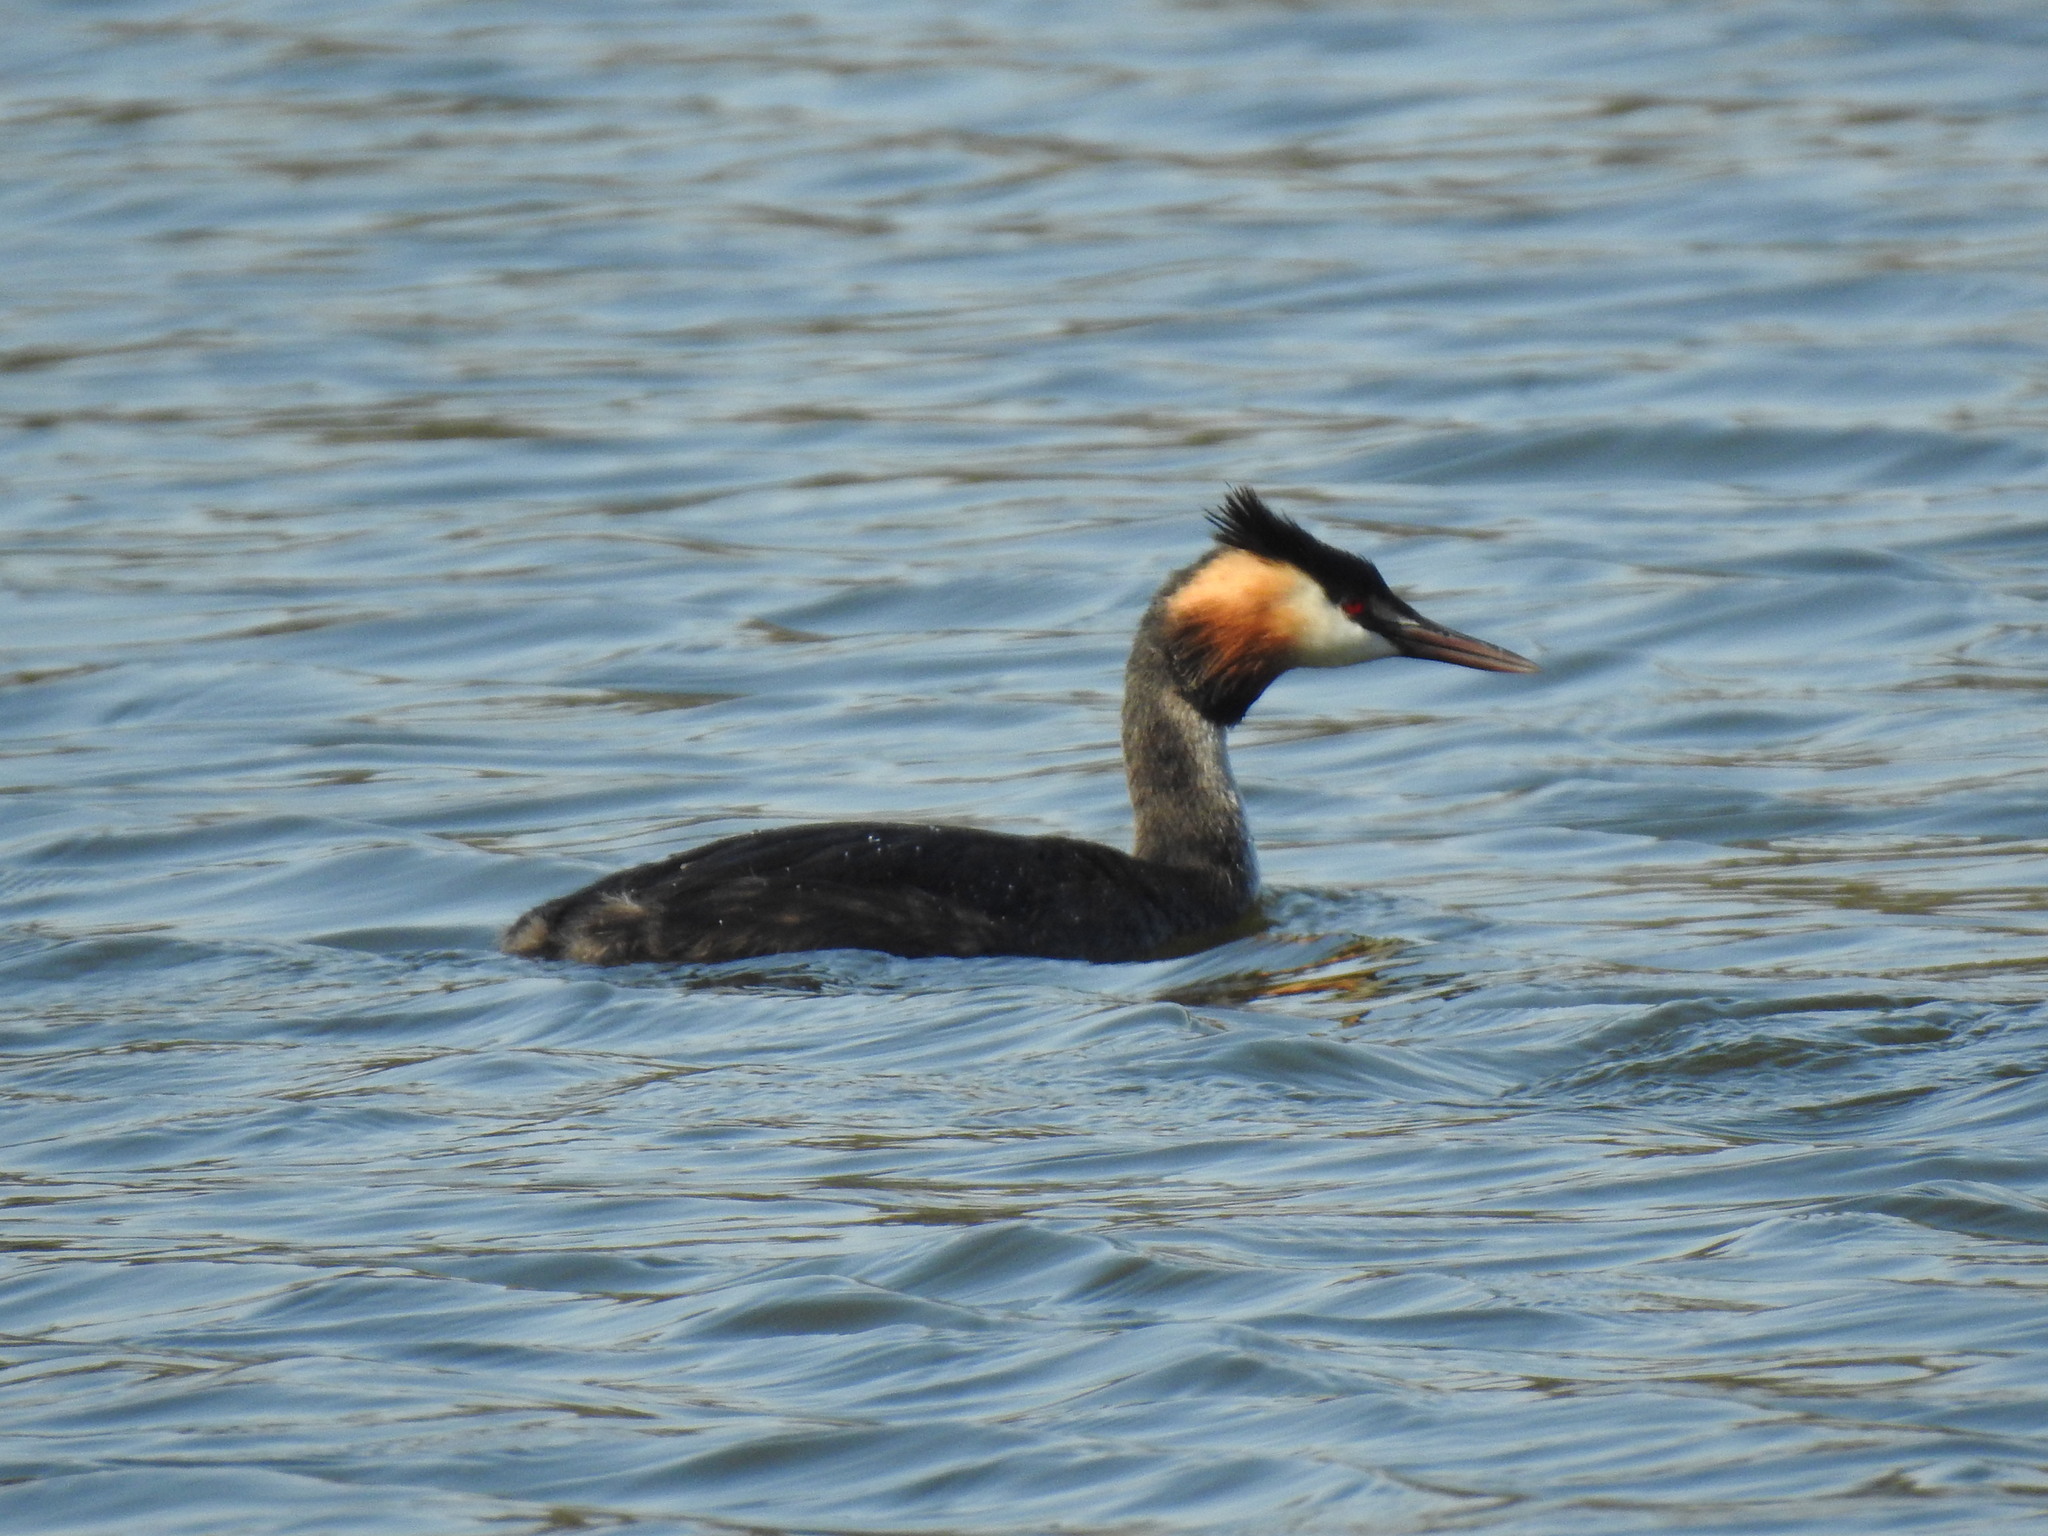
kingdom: Animalia
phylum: Chordata
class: Aves
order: Podicipediformes
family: Podicipedidae
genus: Podiceps
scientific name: Podiceps cristatus
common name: Great crested grebe
